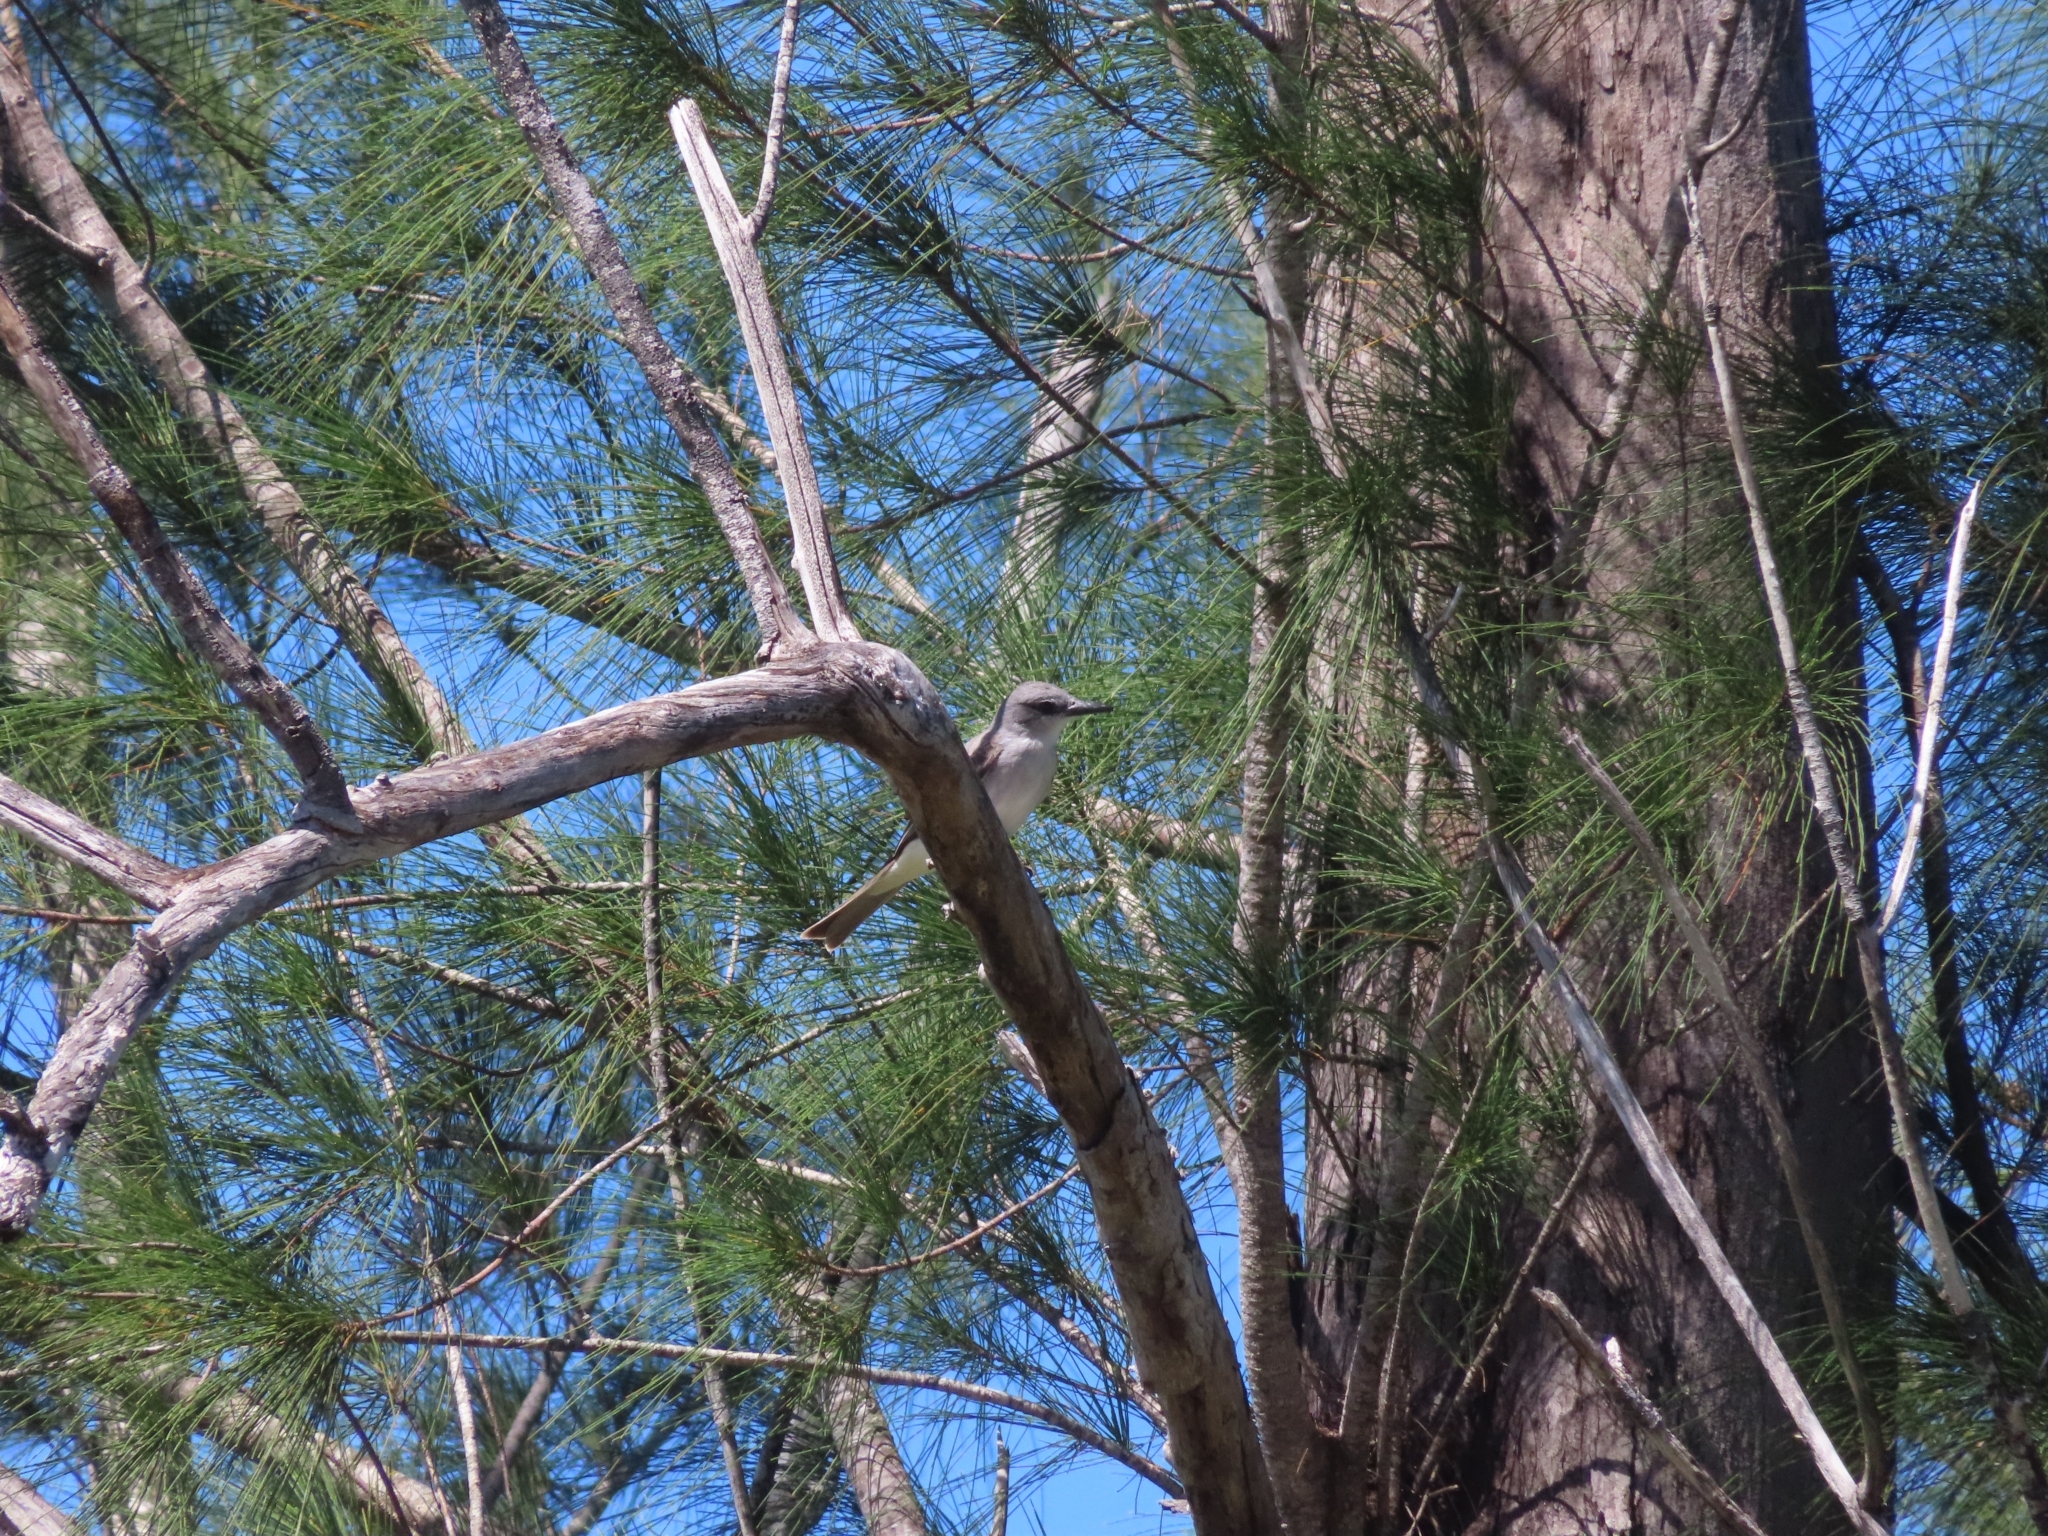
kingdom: Animalia
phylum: Chordata
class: Aves
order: Passeriformes
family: Tyrannidae
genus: Tyrannus
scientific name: Tyrannus dominicensis
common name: Gray kingbird
